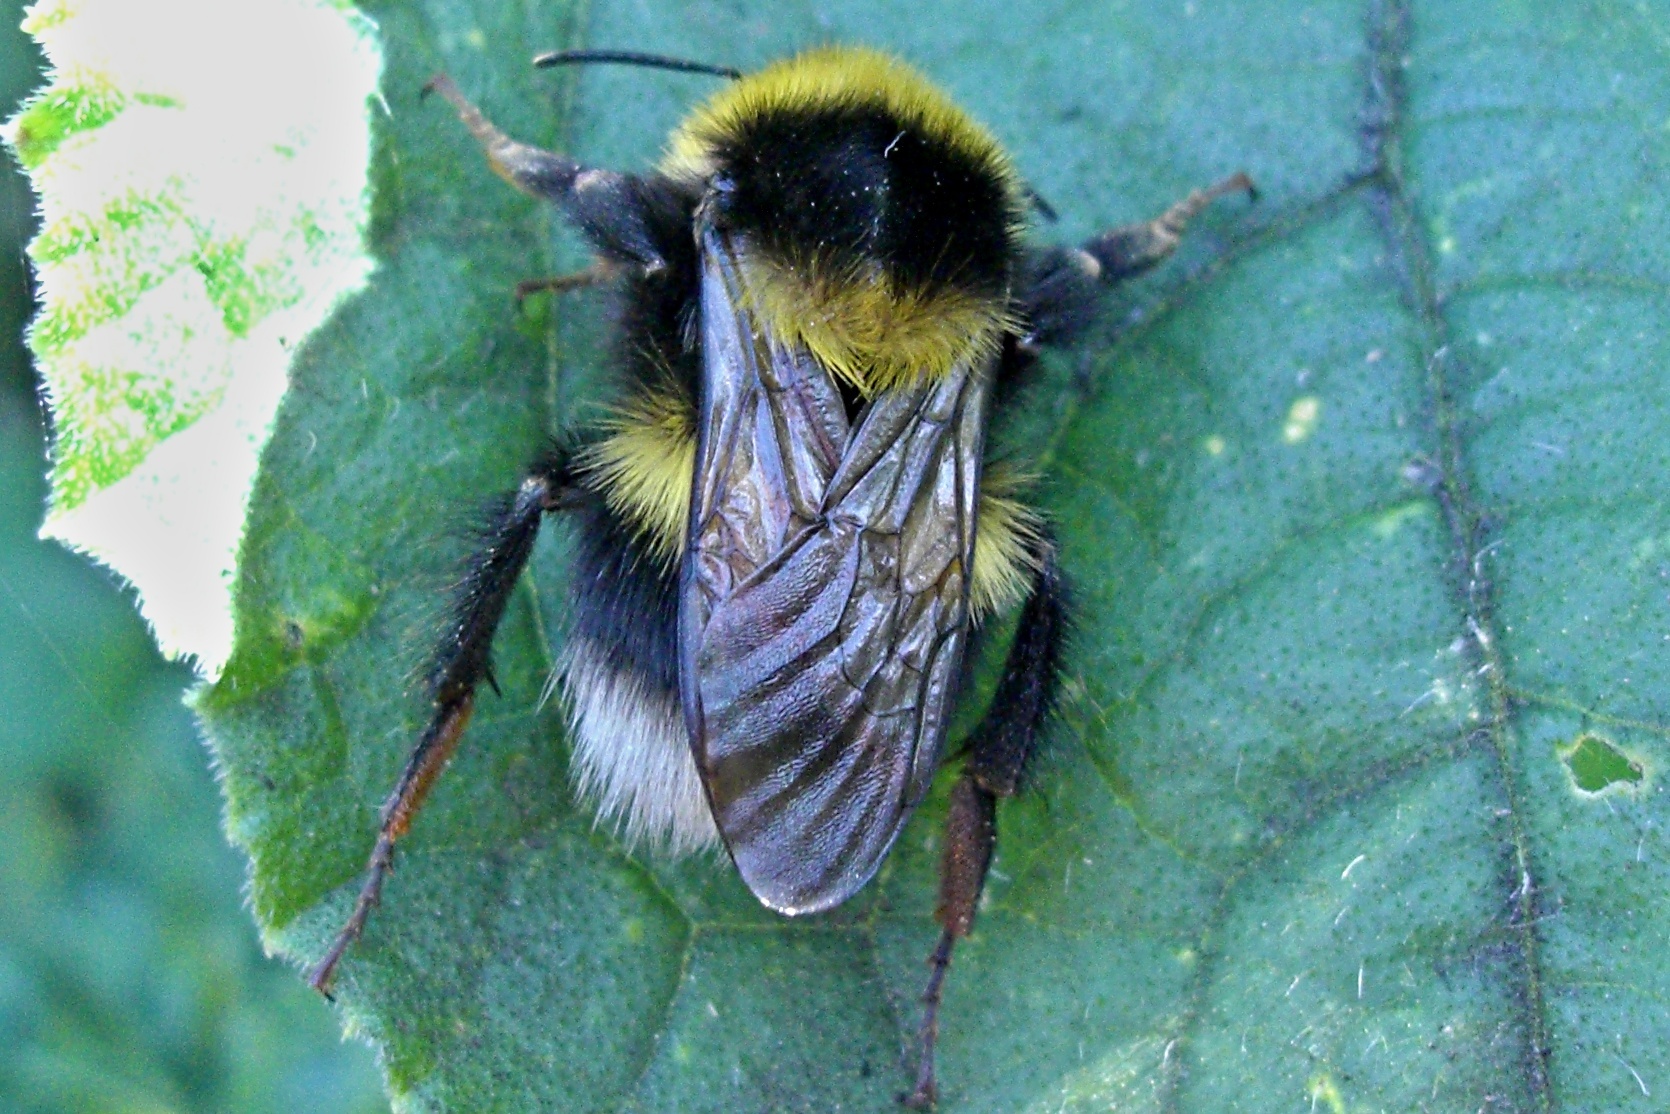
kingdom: Animalia
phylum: Arthropoda
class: Insecta
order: Hymenoptera
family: Apidae
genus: Bombus
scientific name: Bombus hortorum
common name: Garden bumblebee
